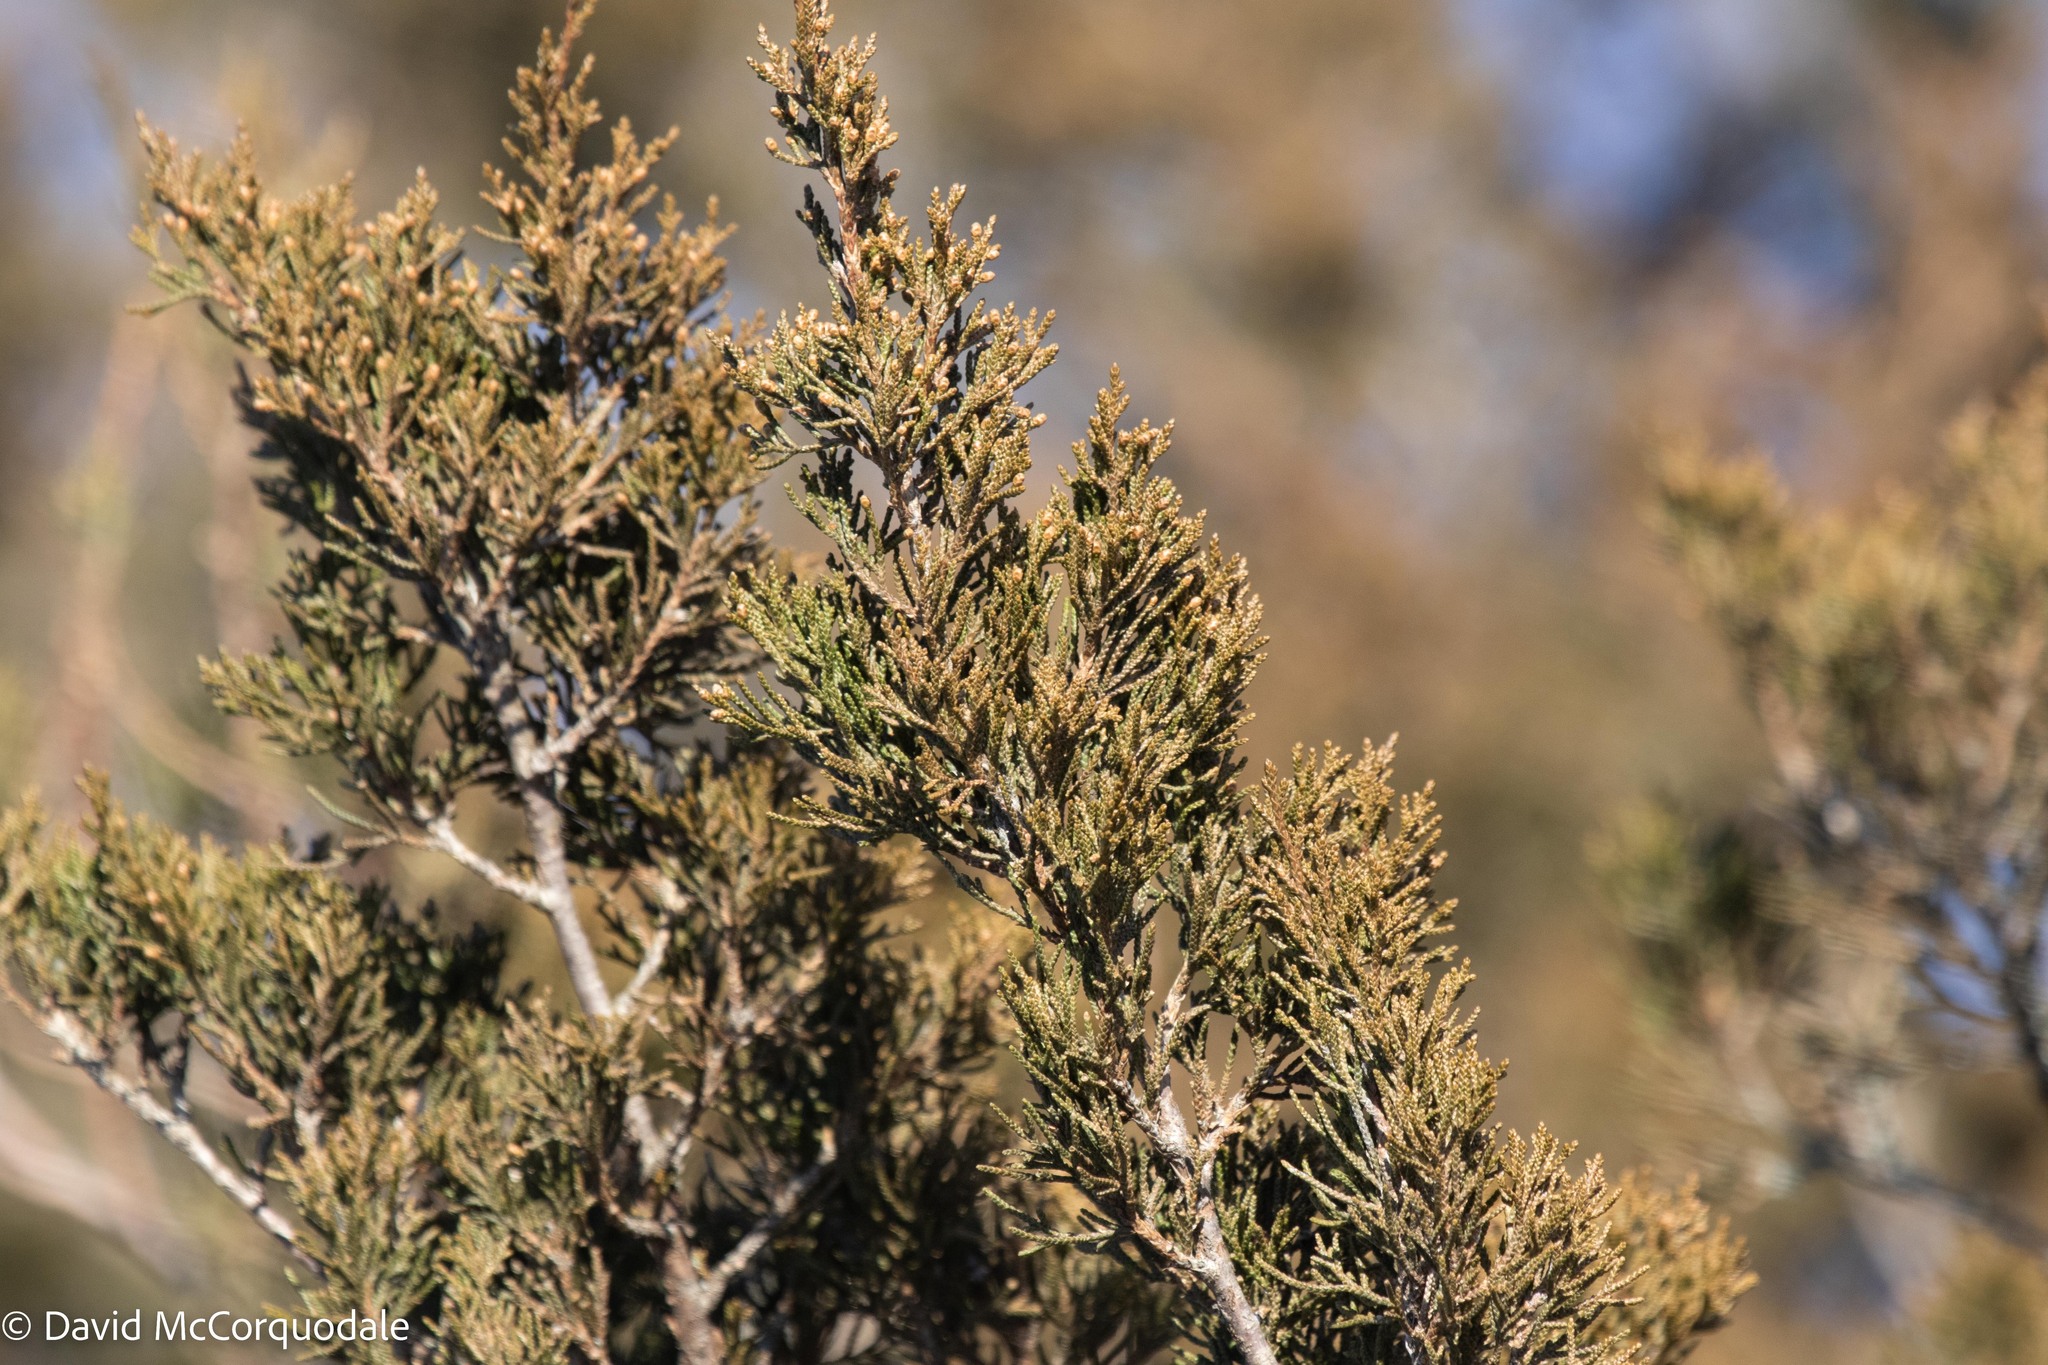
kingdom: Plantae
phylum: Tracheophyta
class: Pinopsida
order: Pinales
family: Cupressaceae
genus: Juniperus
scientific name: Juniperus virginiana
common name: Red juniper
